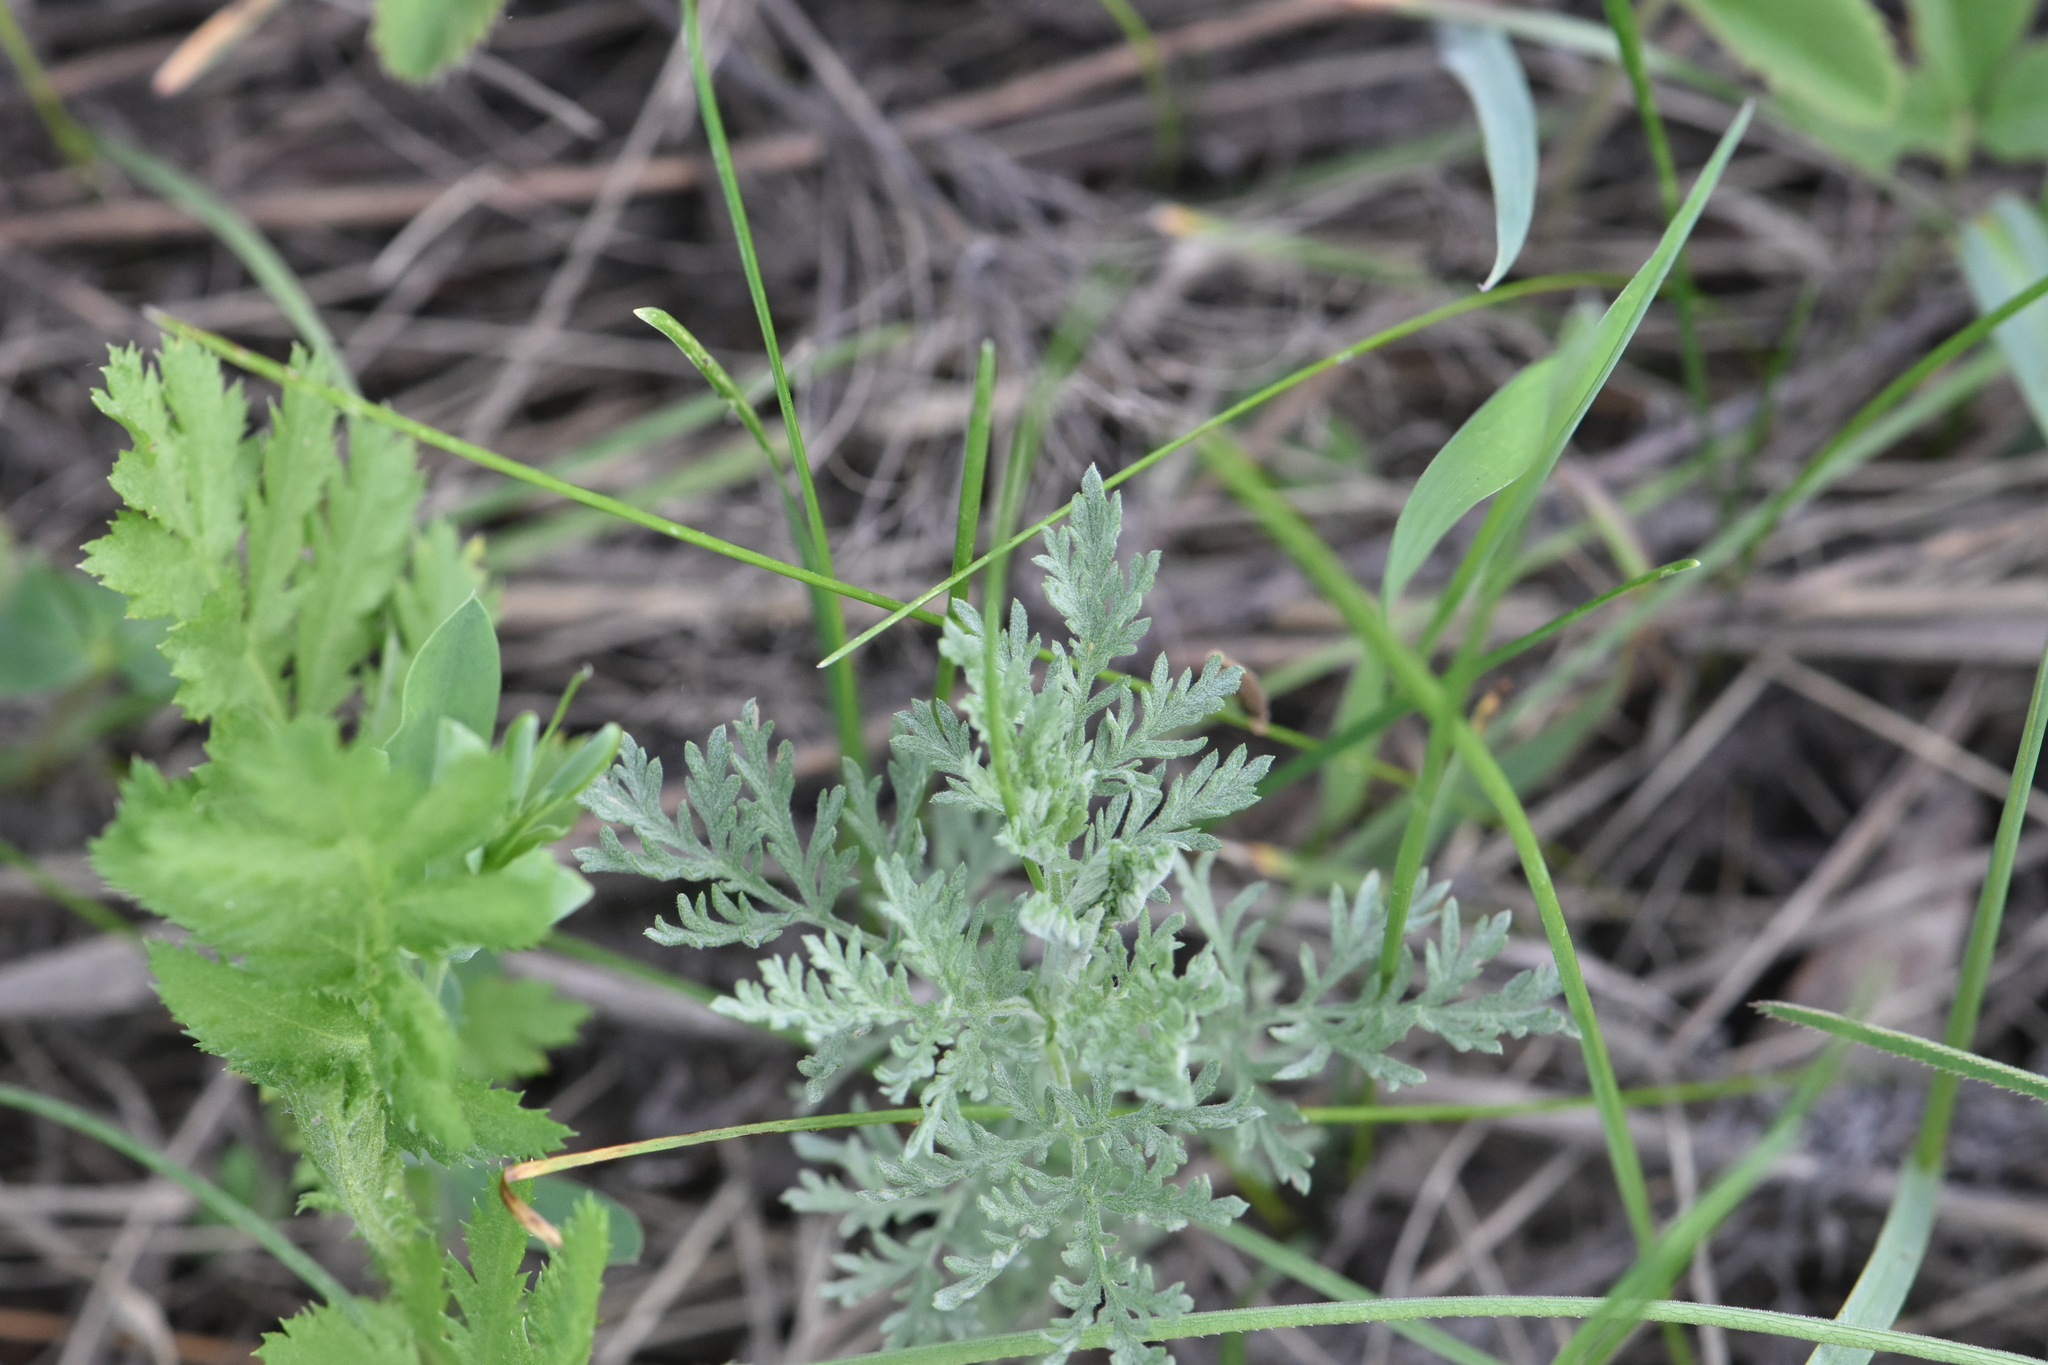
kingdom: Plantae
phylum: Tracheophyta
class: Magnoliopsida
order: Asterales
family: Asteraceae
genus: Artemisia
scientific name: Artemisia pontica
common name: Roman wormwood
